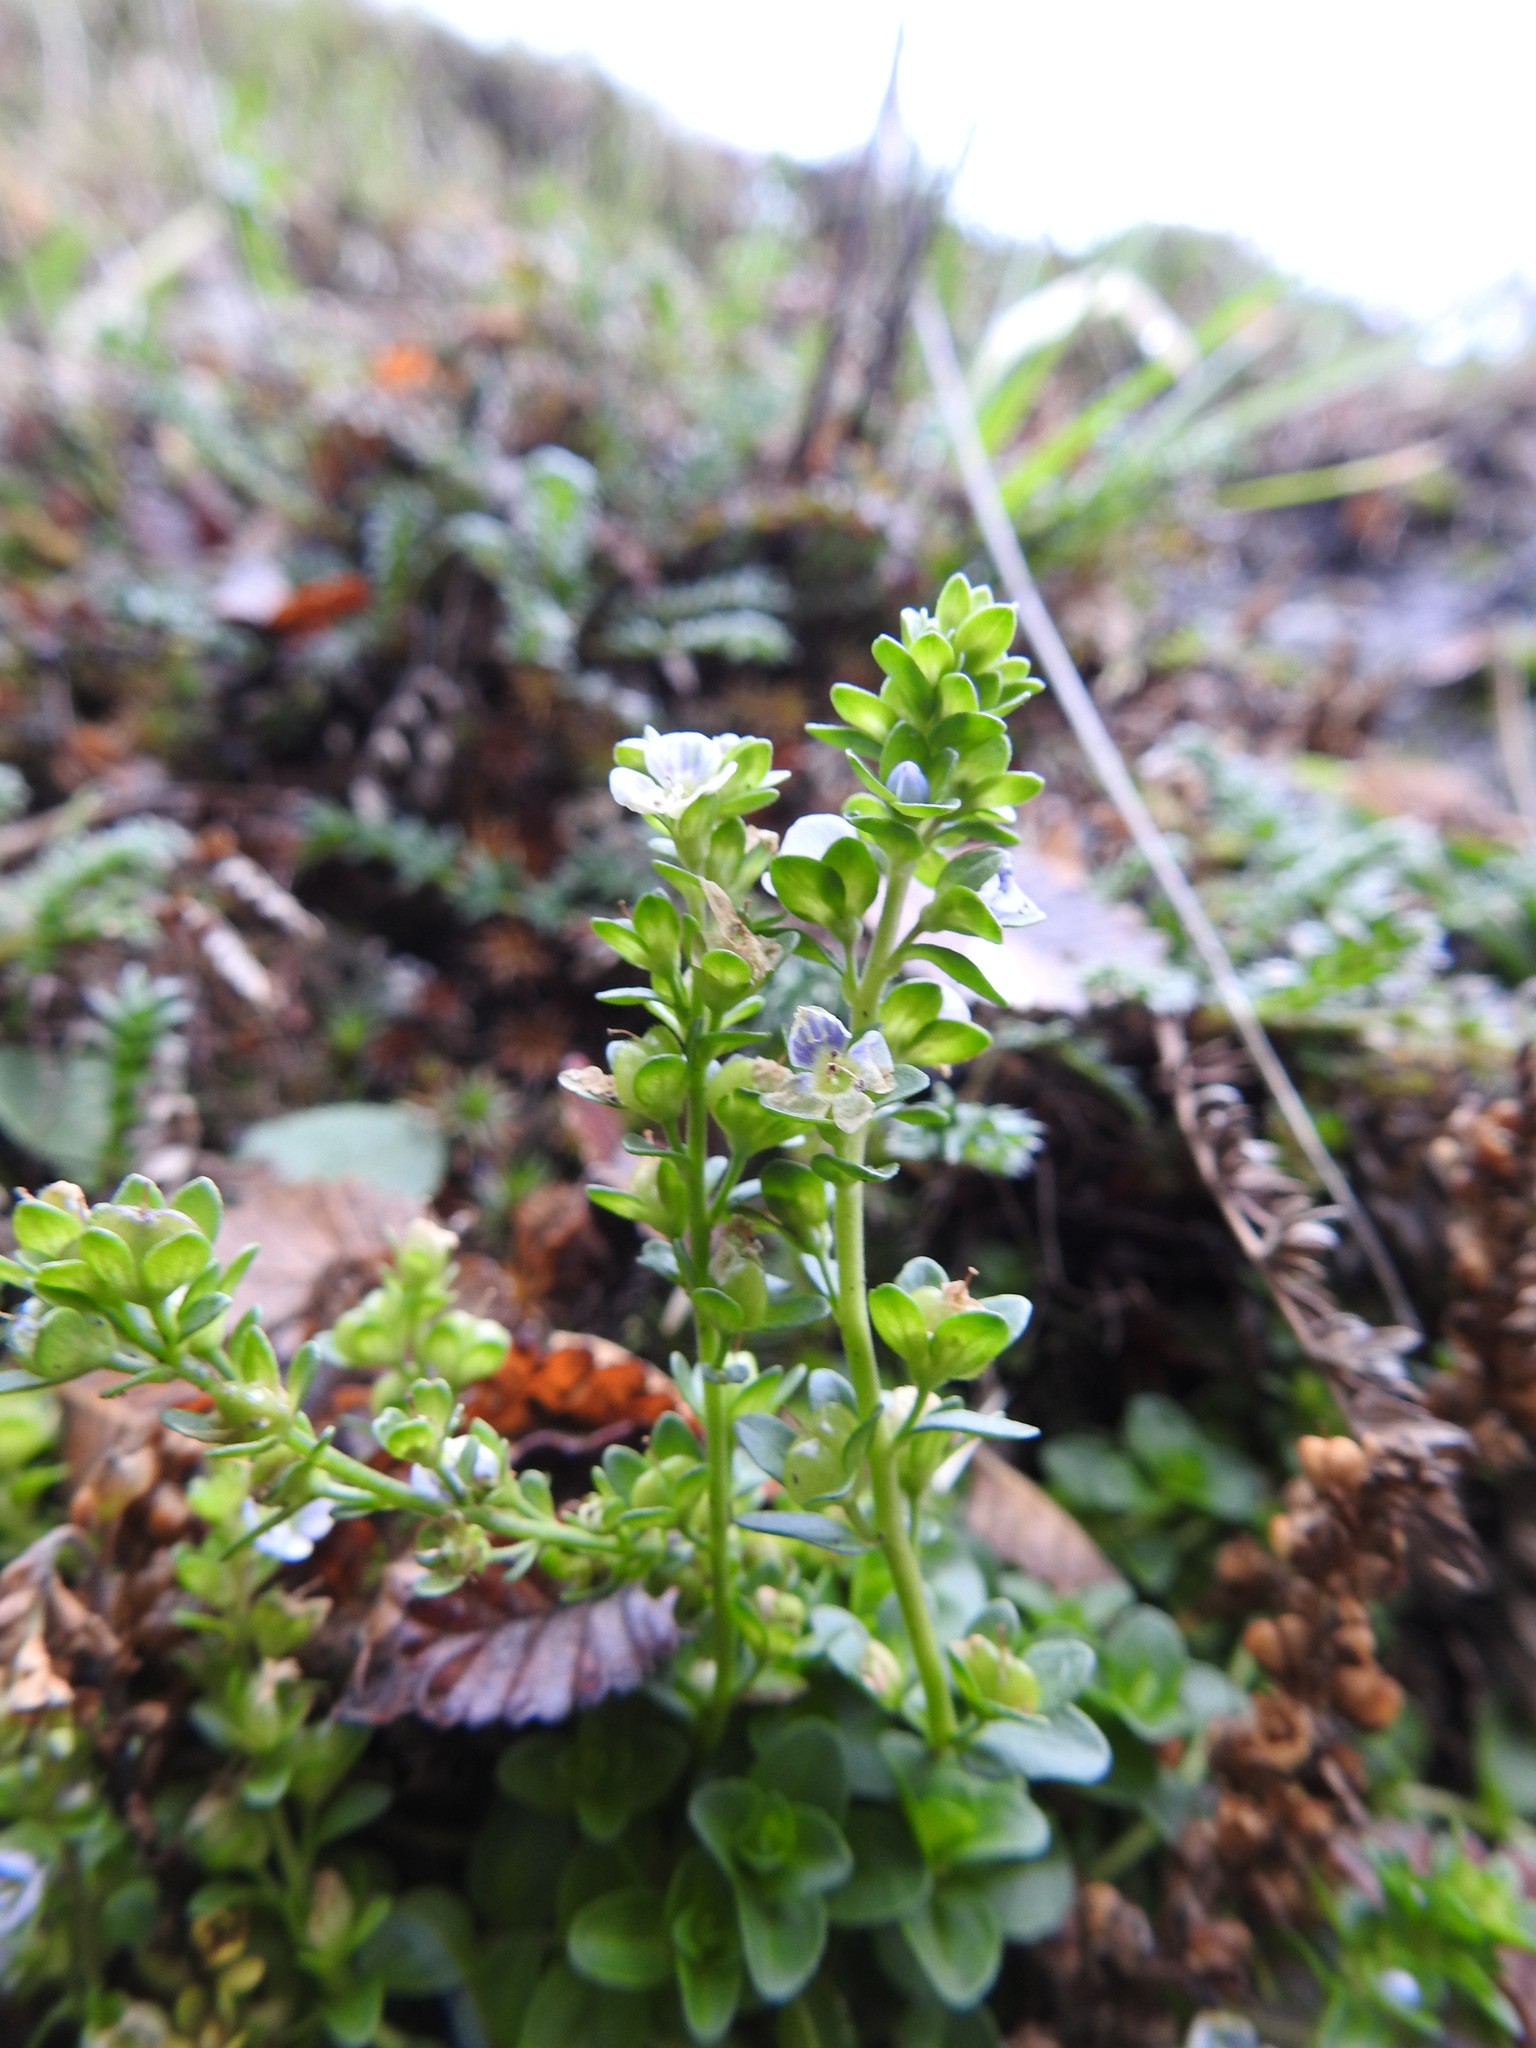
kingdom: Plantae
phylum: Tracheophyta
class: Magnoliopsida
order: Lamiales
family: Plantaginaceae
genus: Veronica
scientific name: Veronica serpyllifolia
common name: Thyme-leaved speedwell
